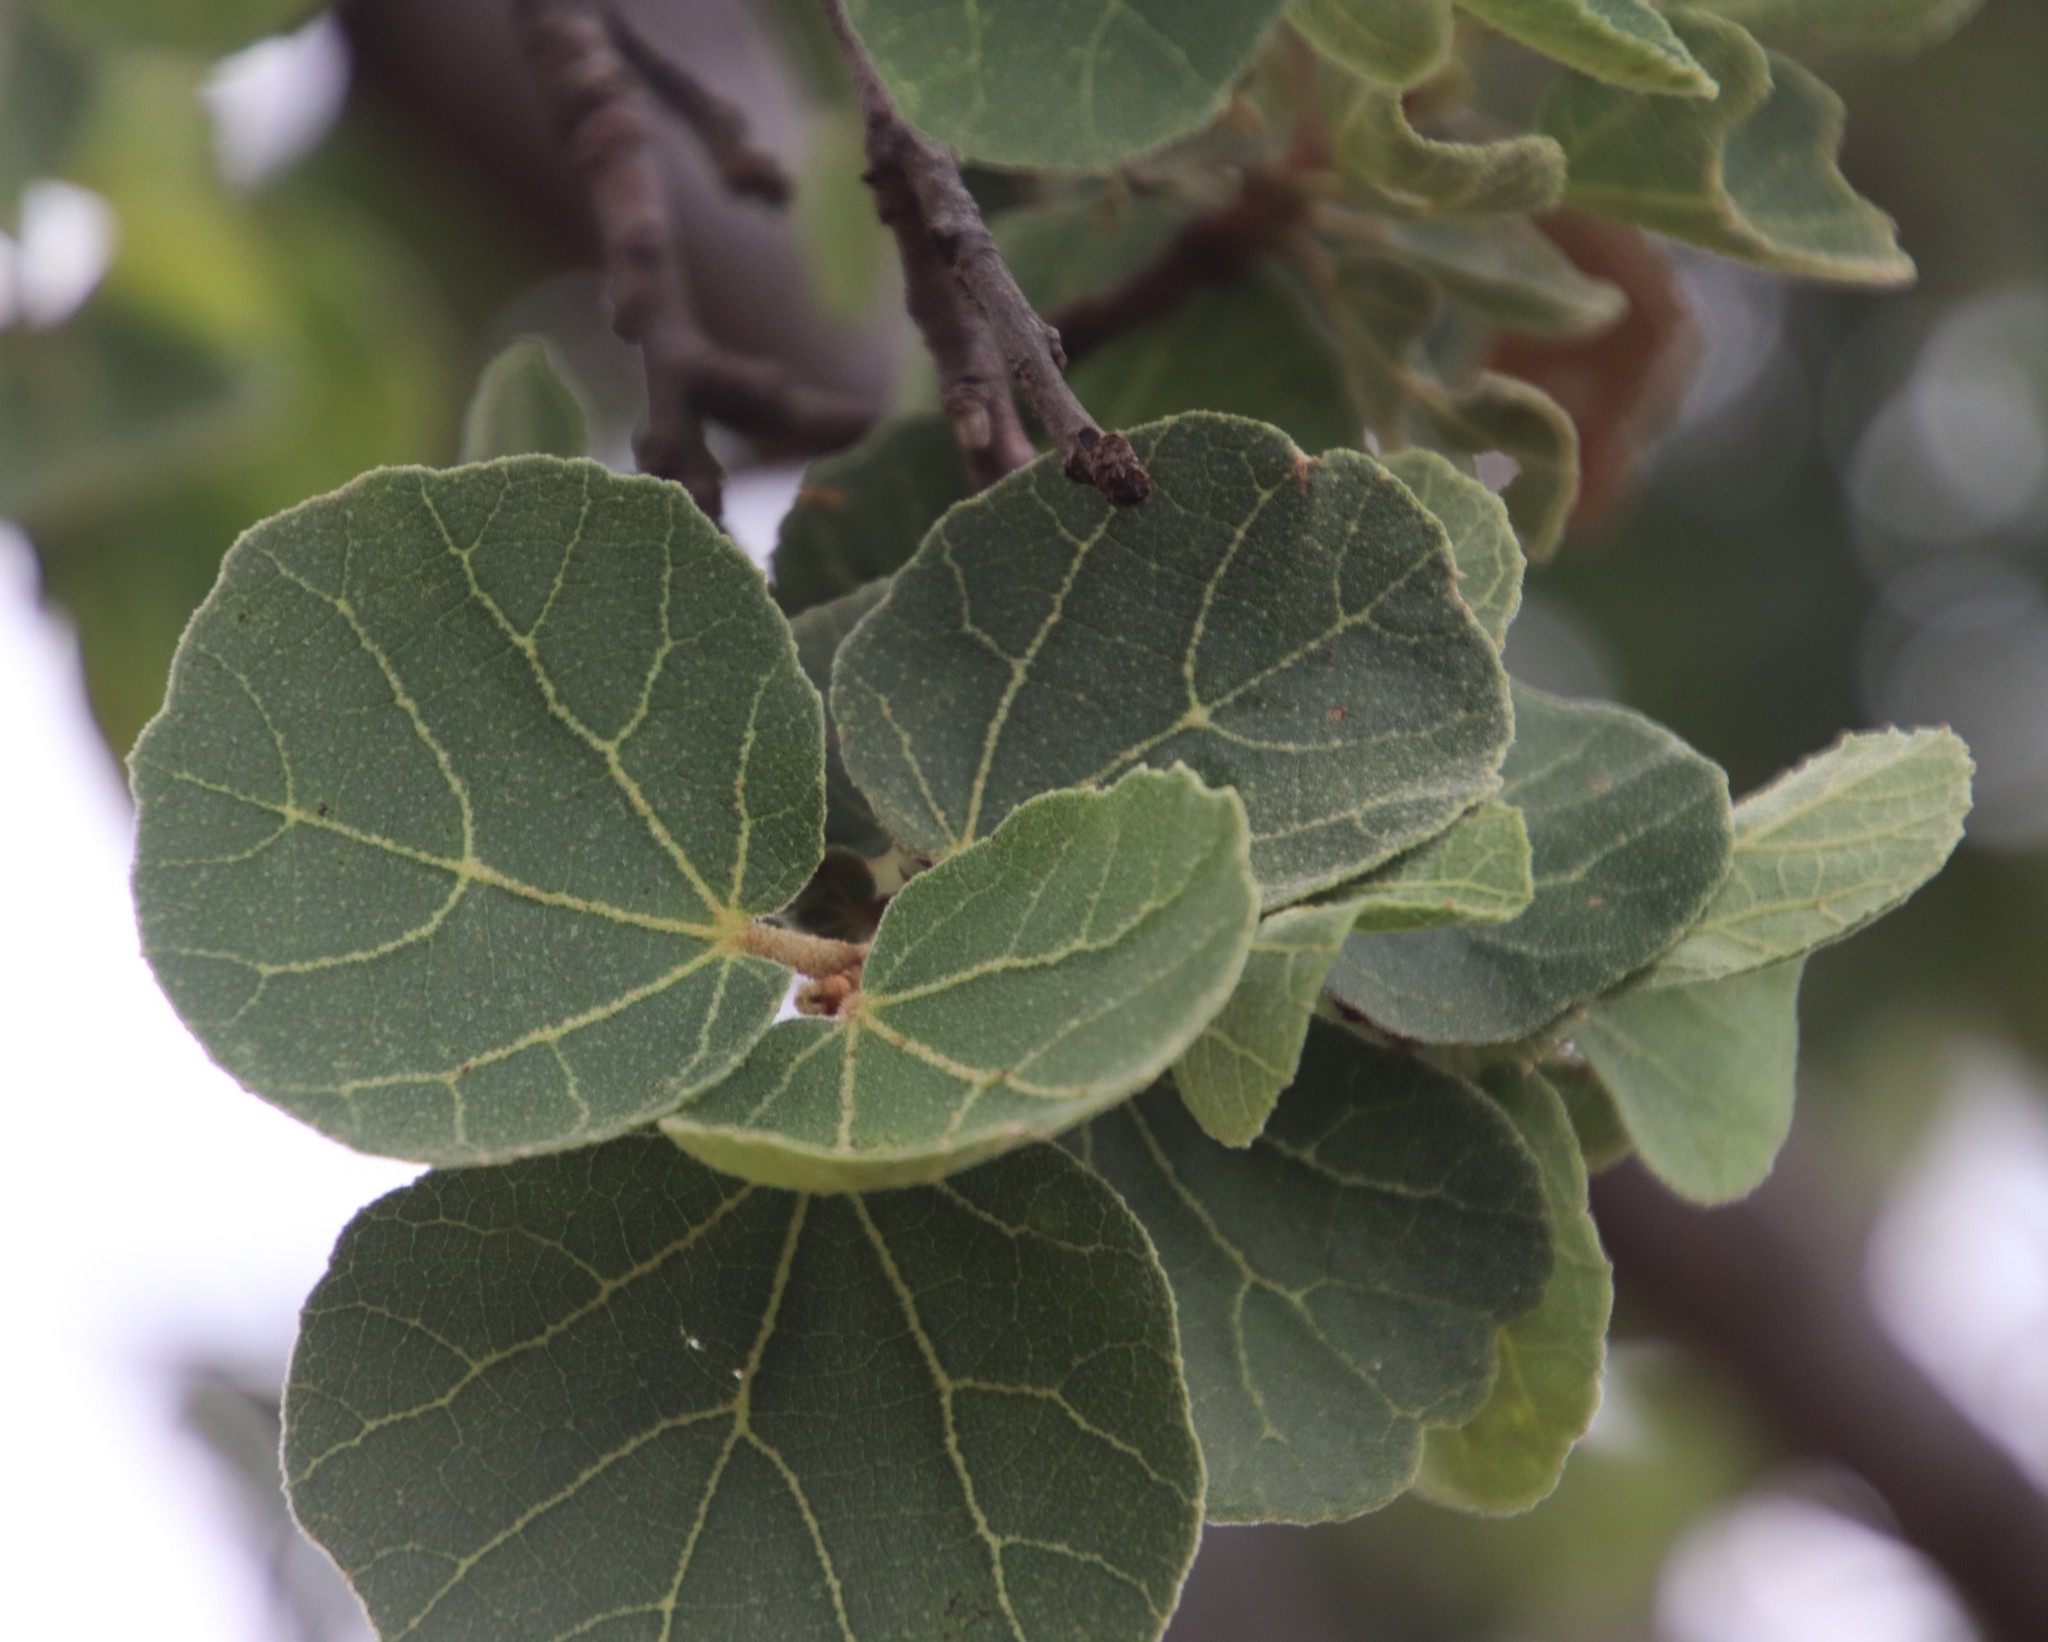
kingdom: Plantae
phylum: Tracheophyta
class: Magnoliopsida
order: Malvales
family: Malvaceae
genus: Dombeya
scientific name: Dombeya rotundifolia
